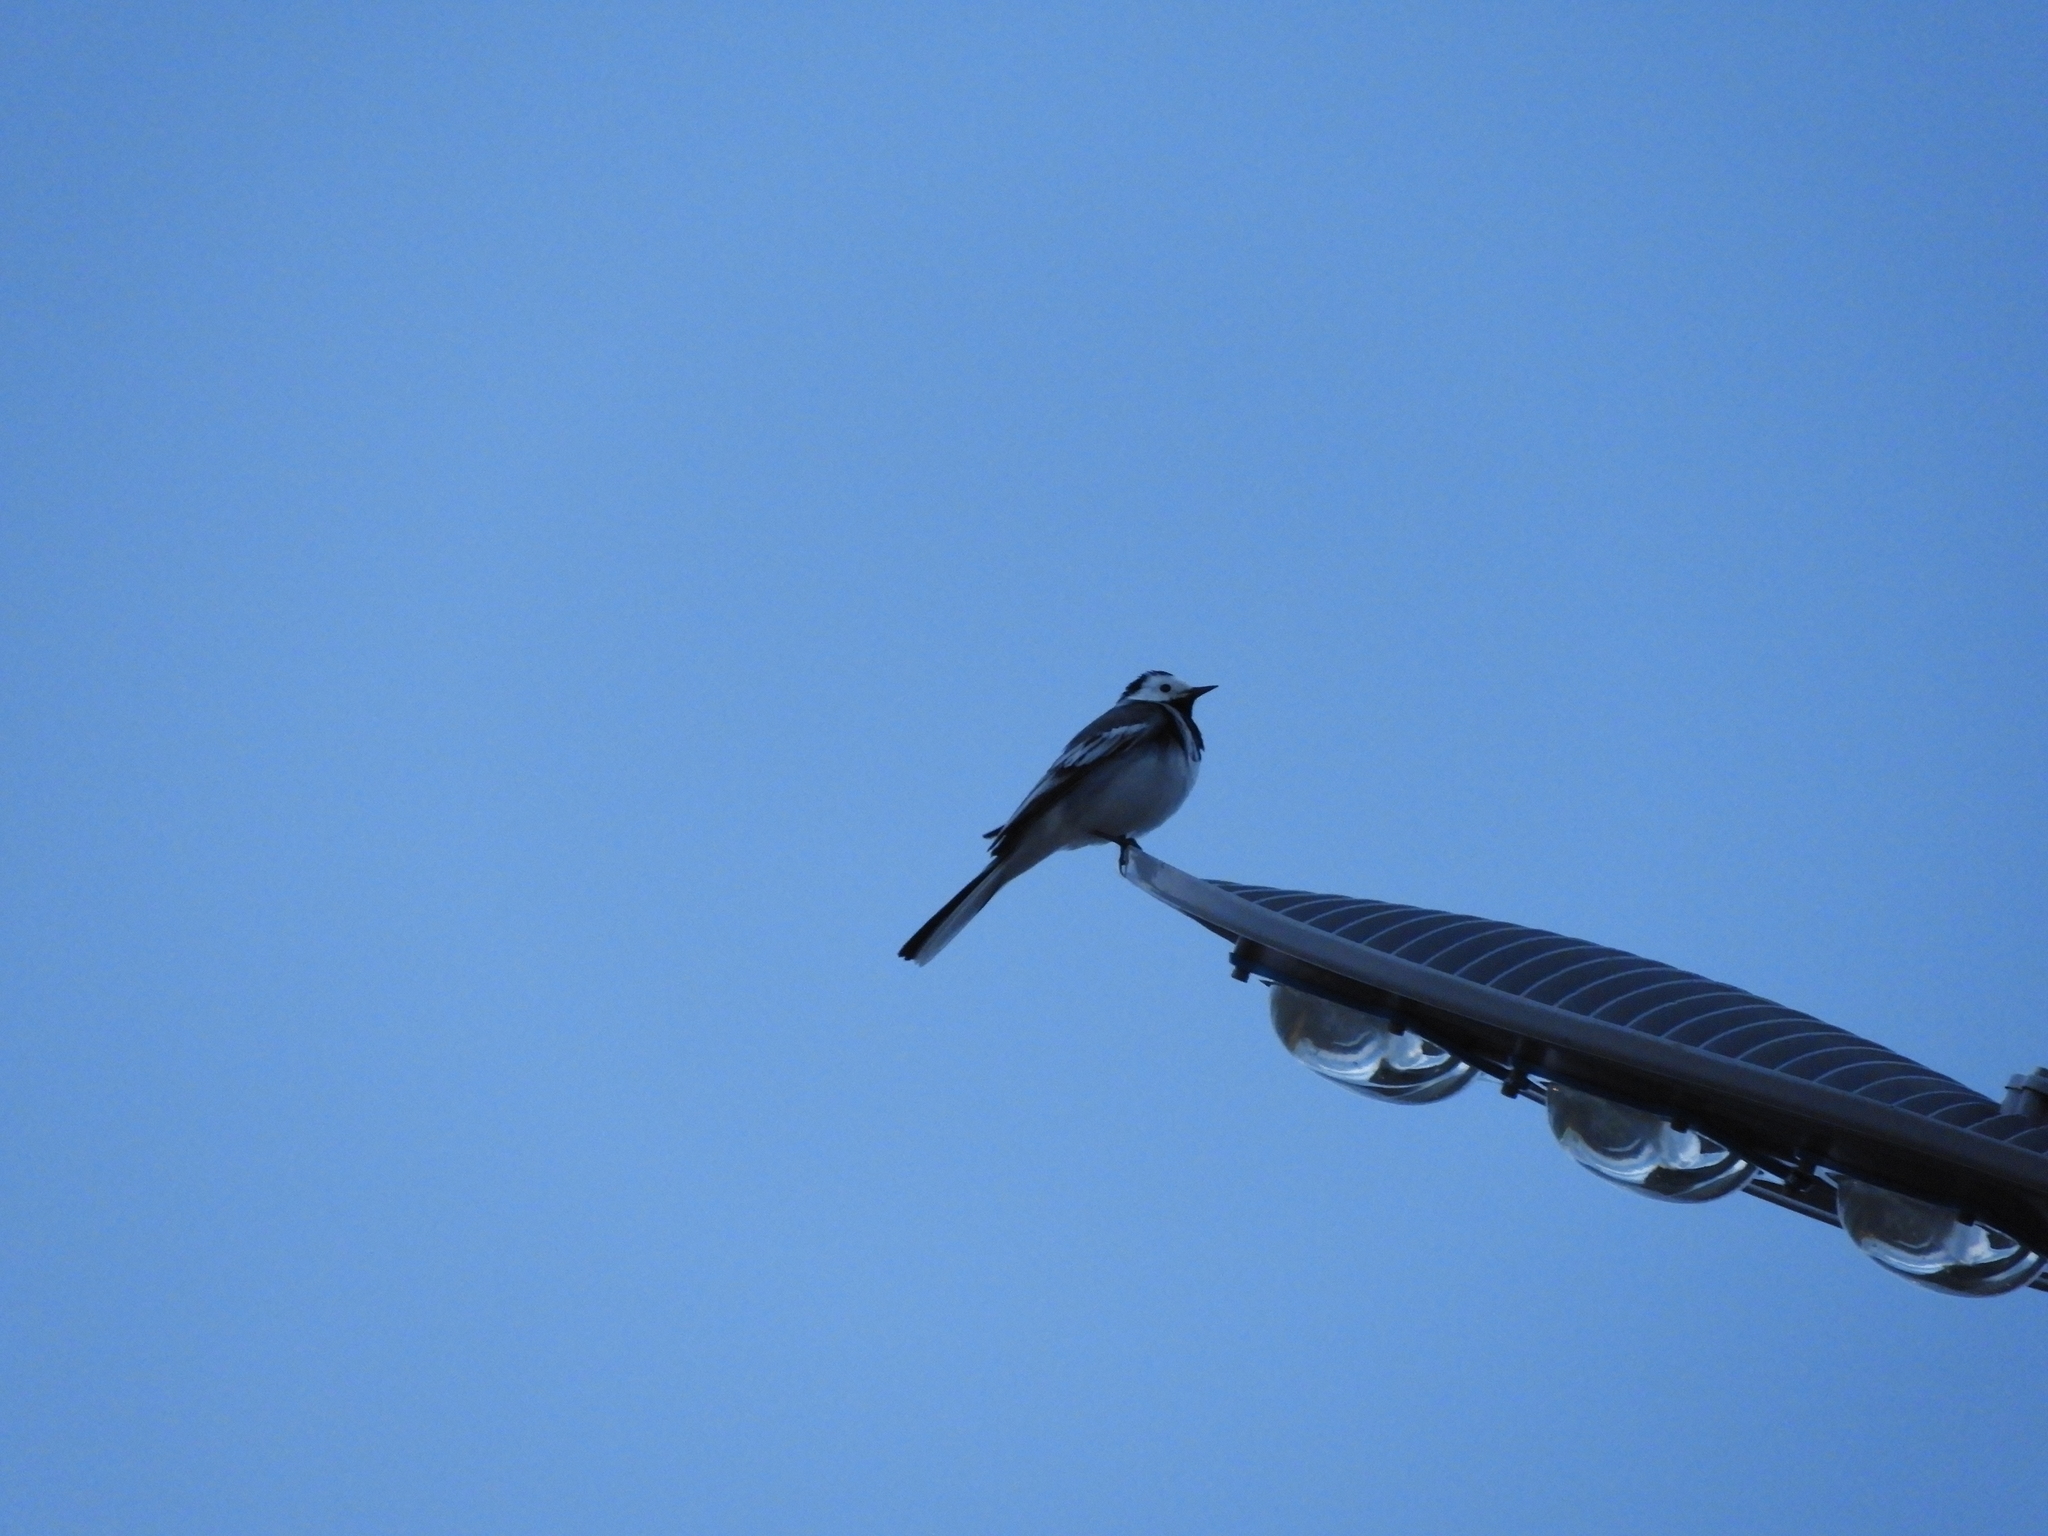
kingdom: Animalia
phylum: Chordata
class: Aves
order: Passeriformes
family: Motacillidae
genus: Motacilla
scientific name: Motacilla alba
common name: White wagtail
